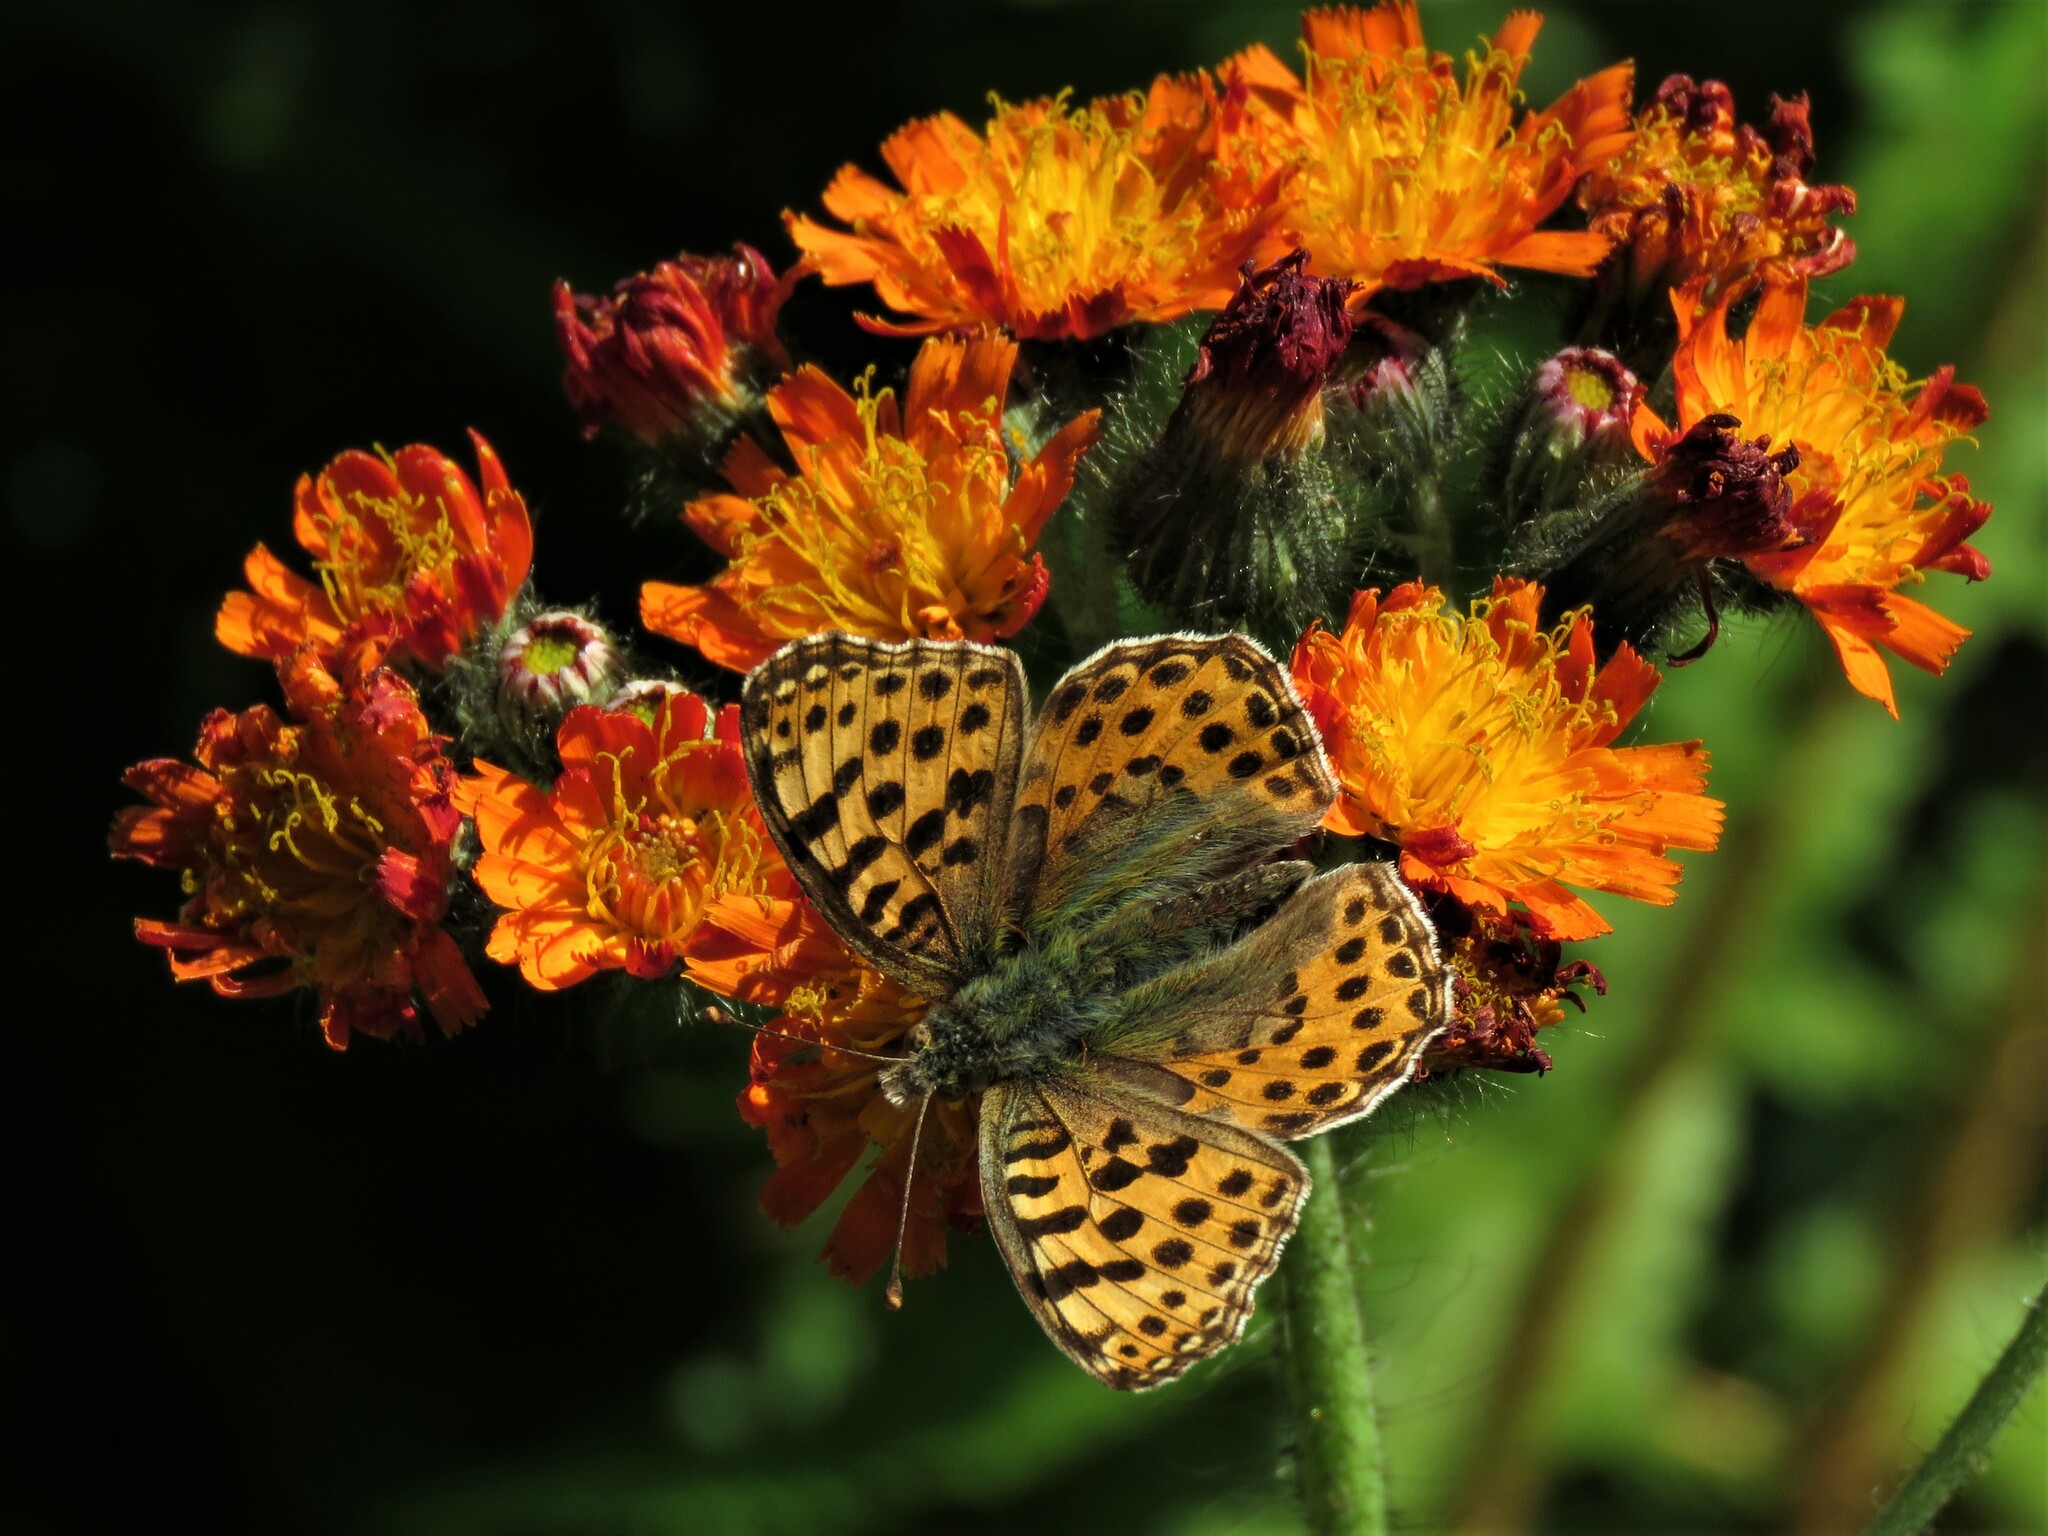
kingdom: Animalia
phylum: Arthropoda
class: Insecta
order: Lepidoptera
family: Nymphalidae
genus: Issoria
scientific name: Issoria lathonia
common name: Queen of spain fritillary
